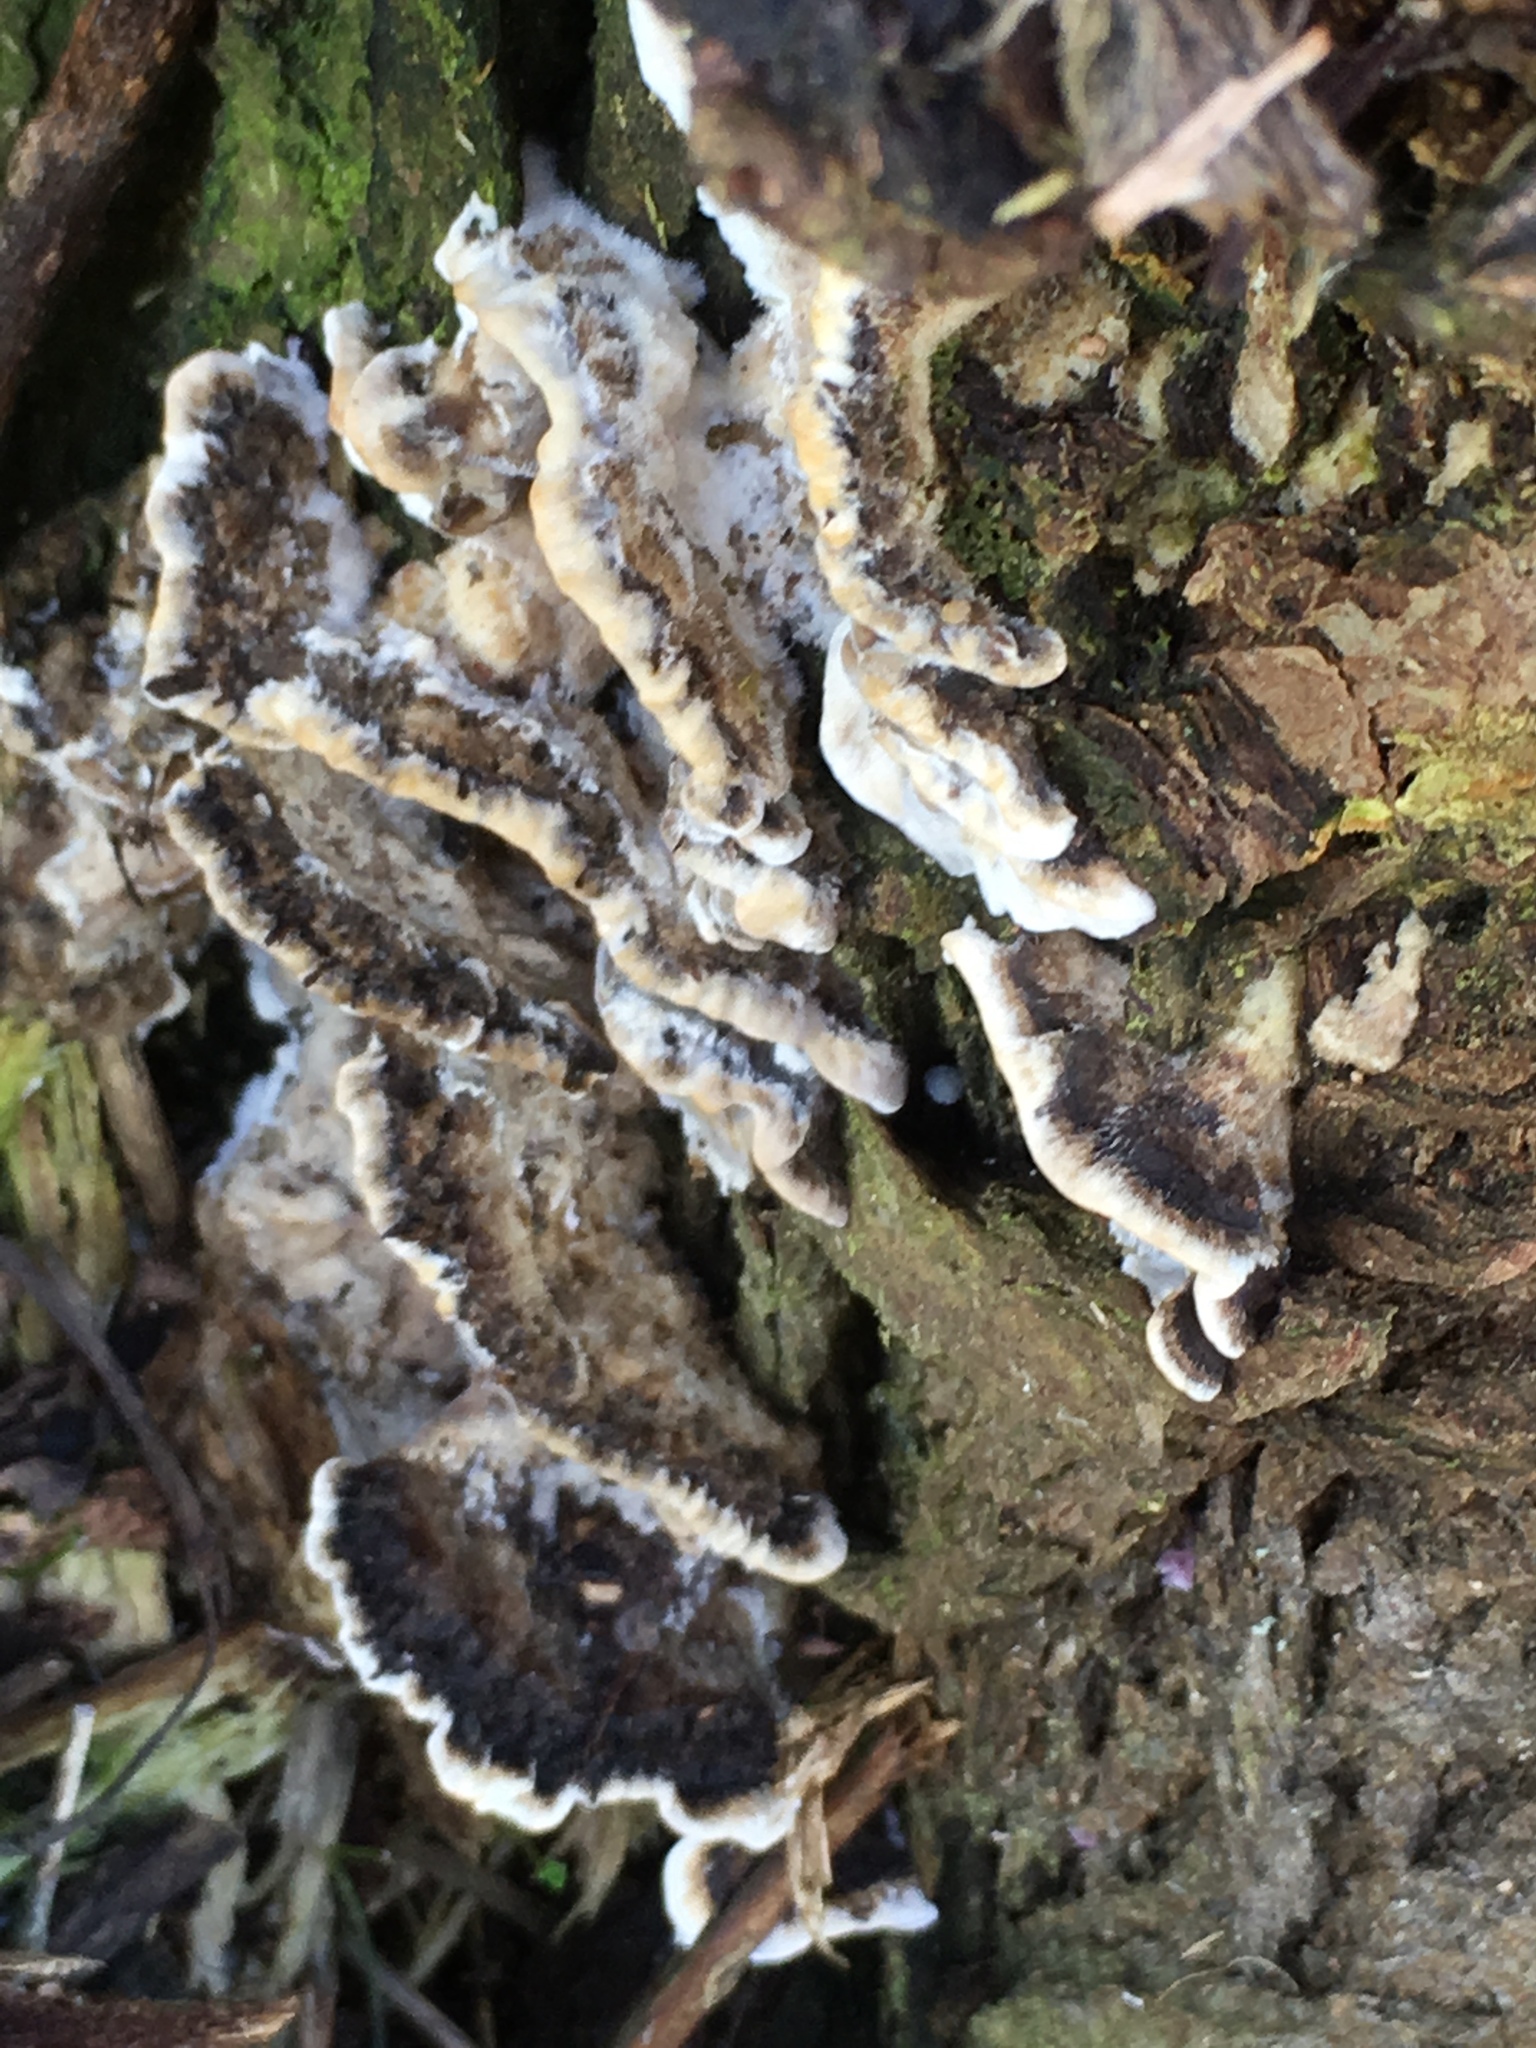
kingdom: Fungi
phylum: Basidiomycota
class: Agaricomycetes
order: Polyporales
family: Phanerochaetaceae
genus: Bjerkandera
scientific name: Bjerkandera adusta
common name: Smoky bracket
